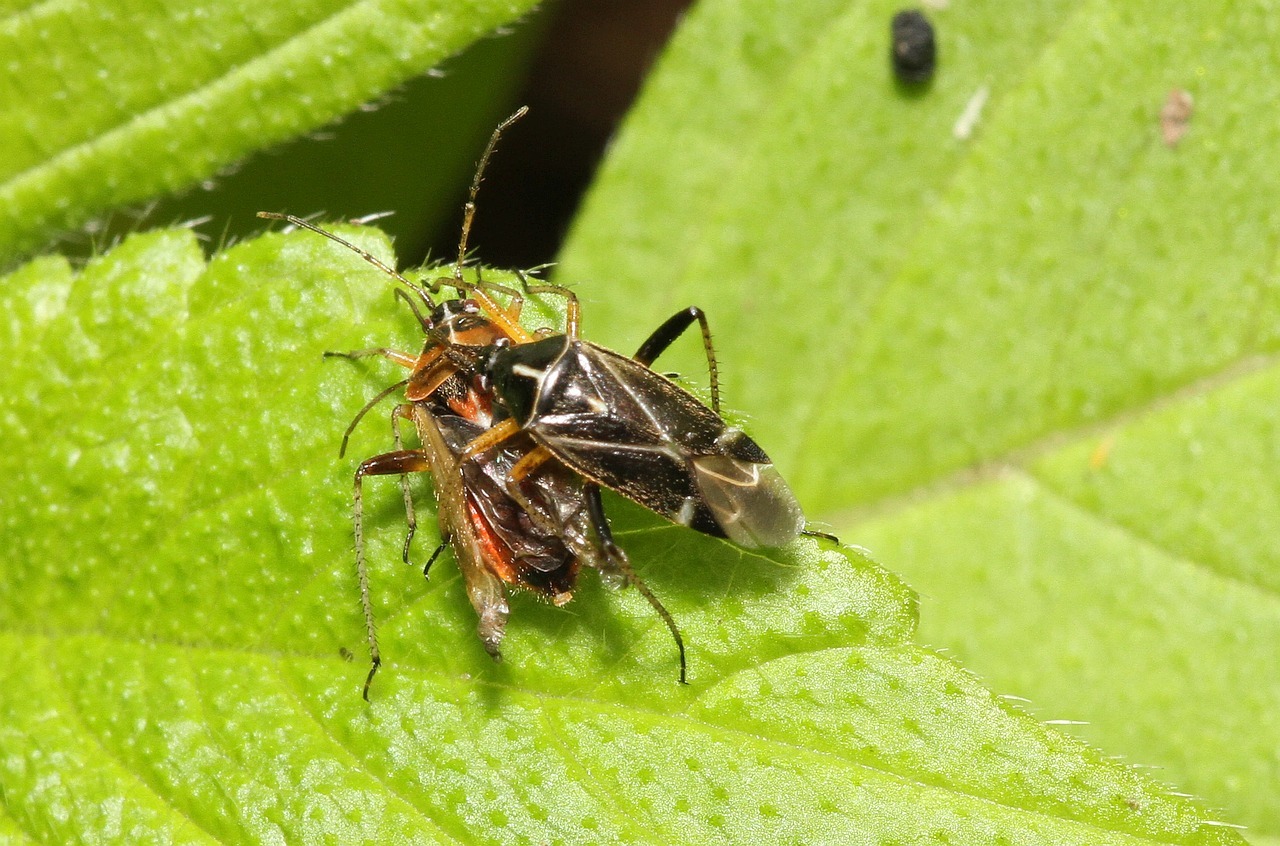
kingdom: Animalia
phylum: Arthropoda
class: Insecta
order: Hemiptera
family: Miridae
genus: Harpocera
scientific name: Harpocera thoracica
